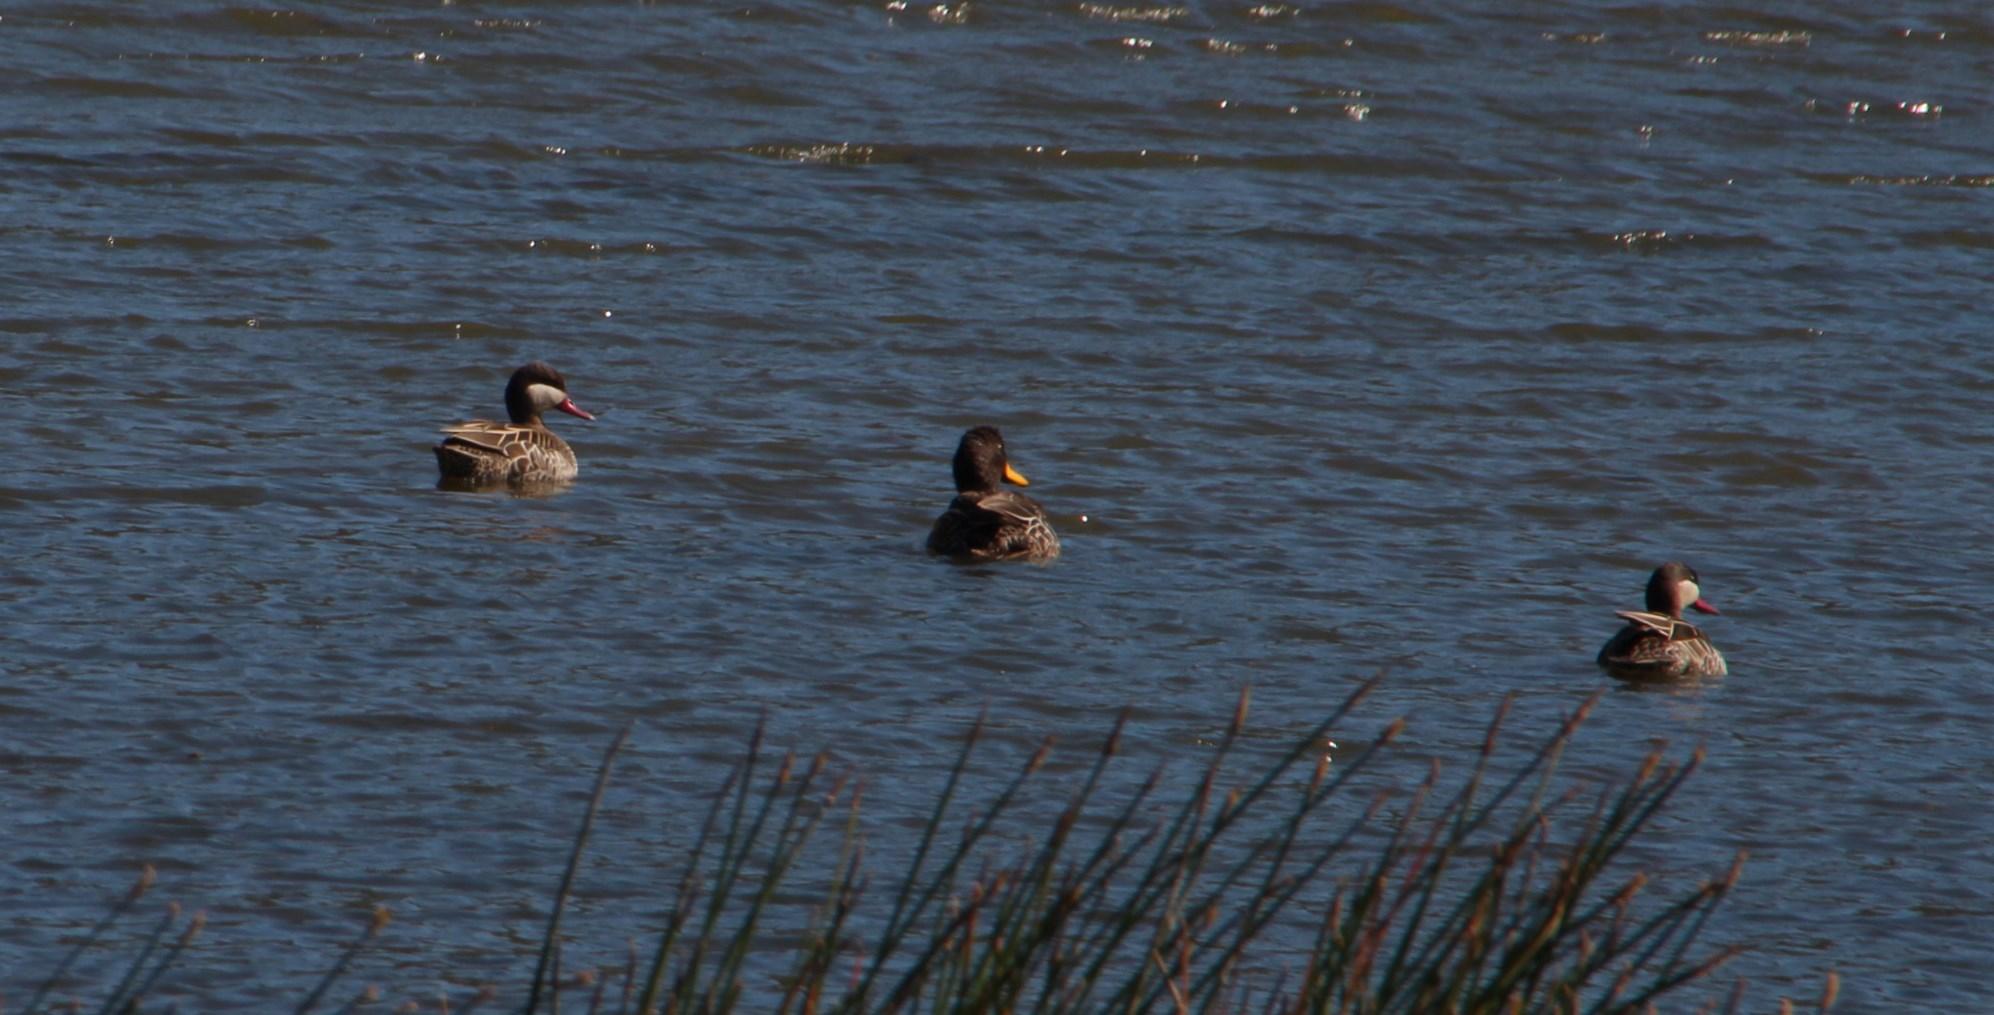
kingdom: Animalia
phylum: Chordata
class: Aves
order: Anseriformes
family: Anatidae
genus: Anas
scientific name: Anas erythrorhyncha
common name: Red-billed teal
